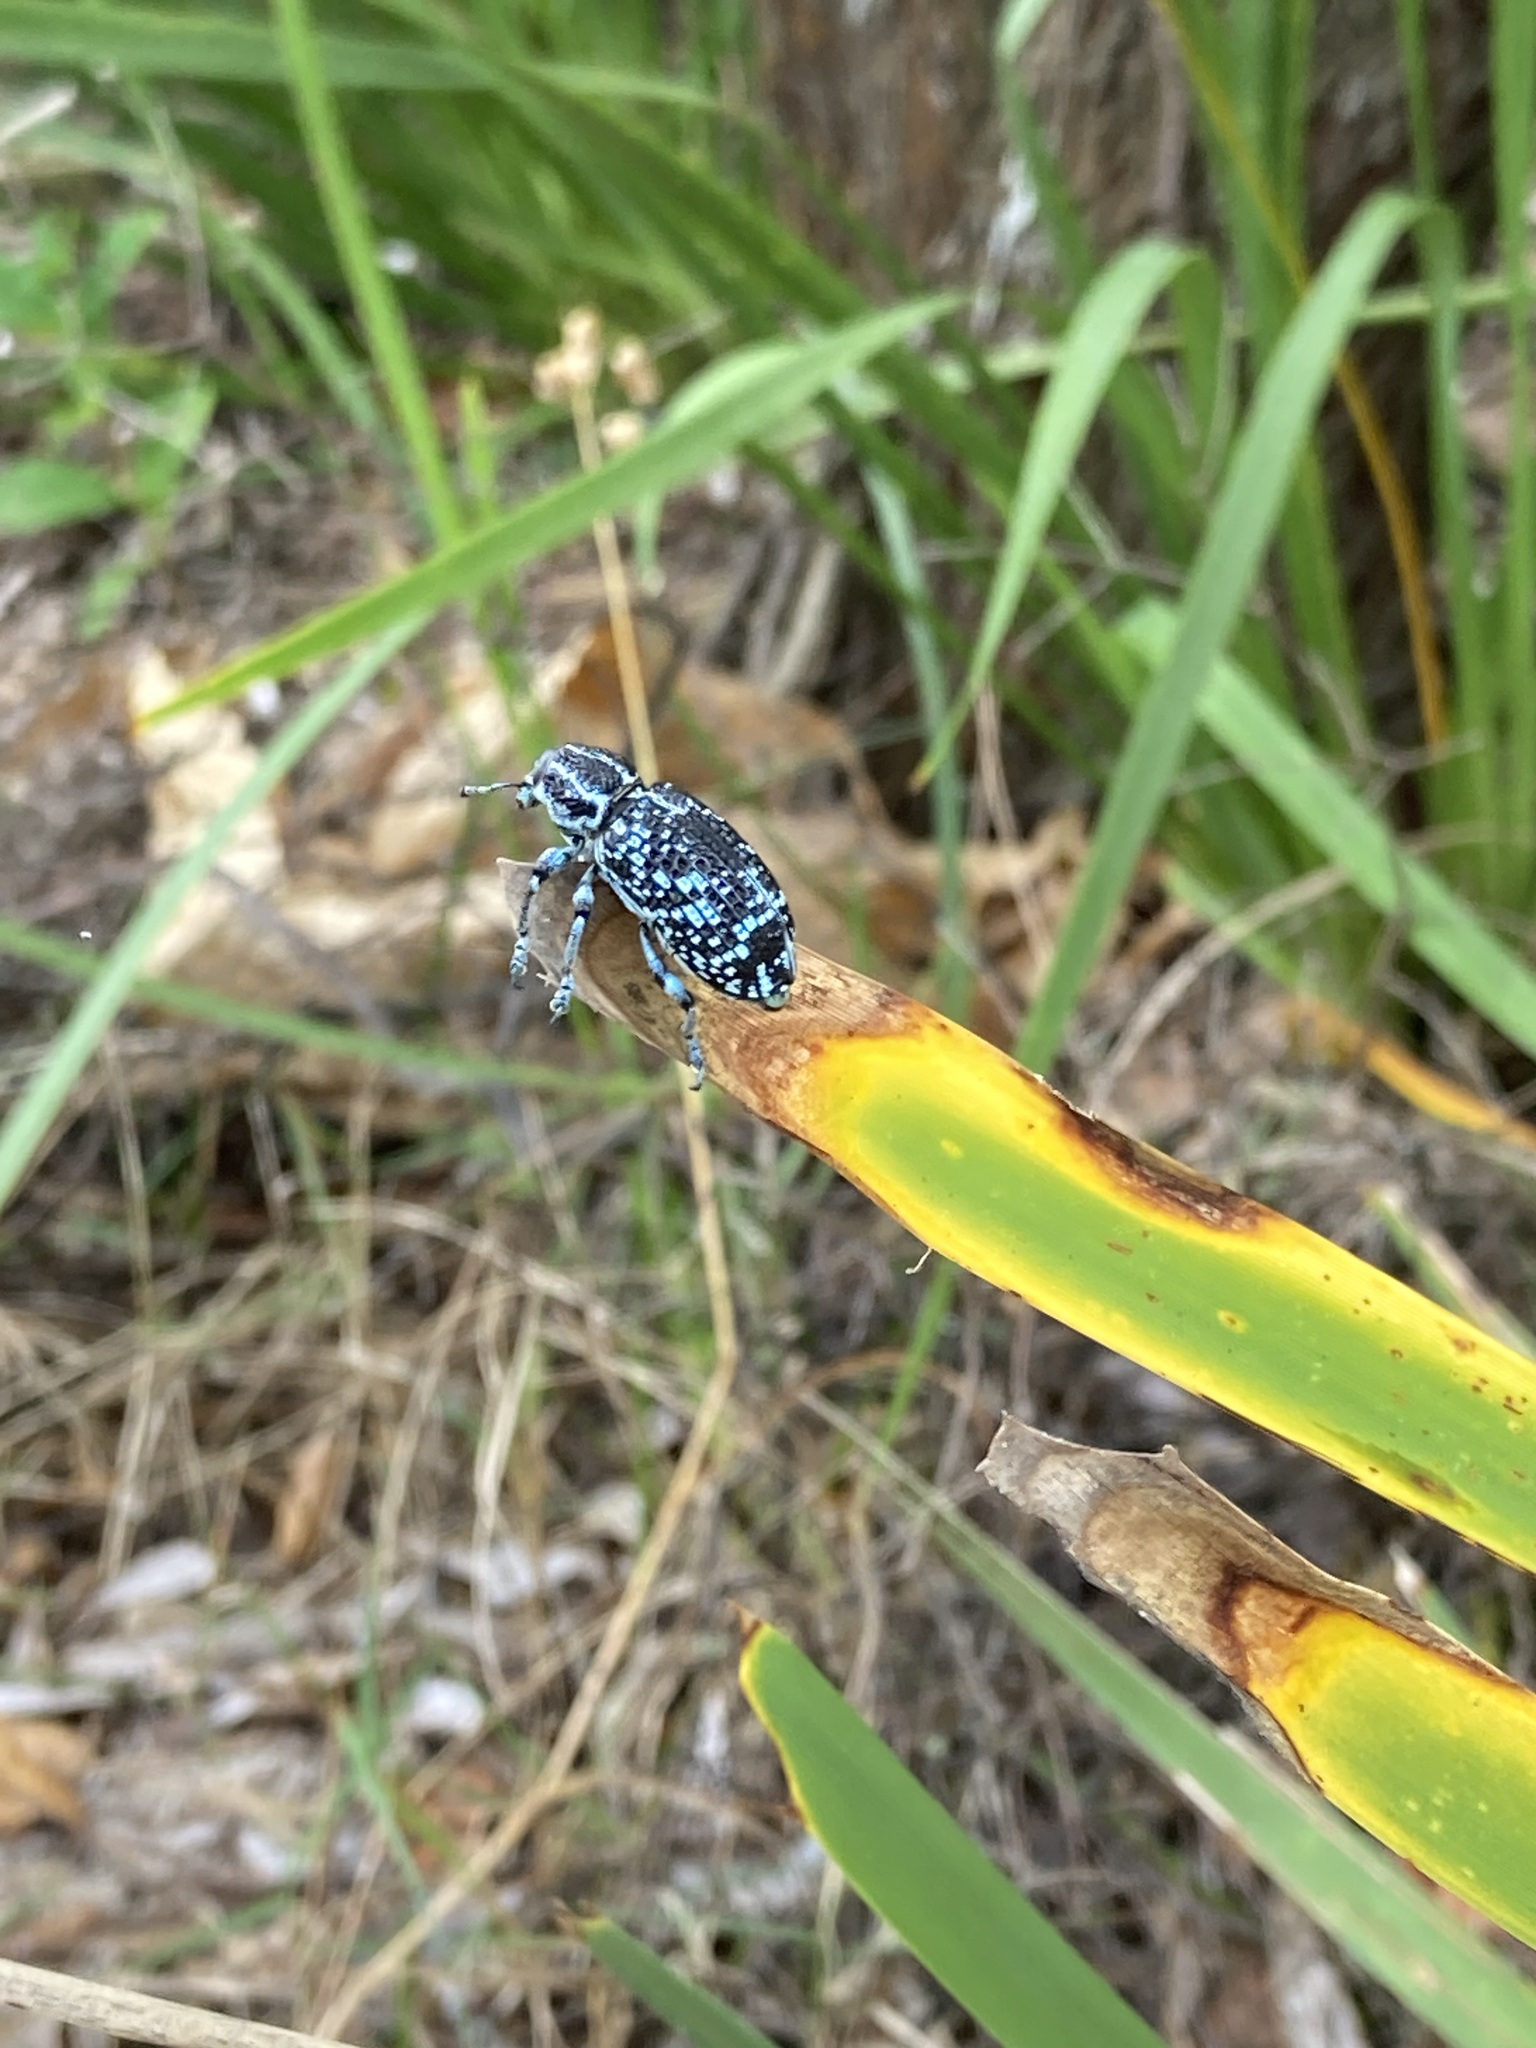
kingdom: Animalia
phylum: Arthropoda
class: Insecta
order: Coleoptera
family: Curculionidae
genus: Chrysolopus
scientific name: Chrysolopus spectabilis
